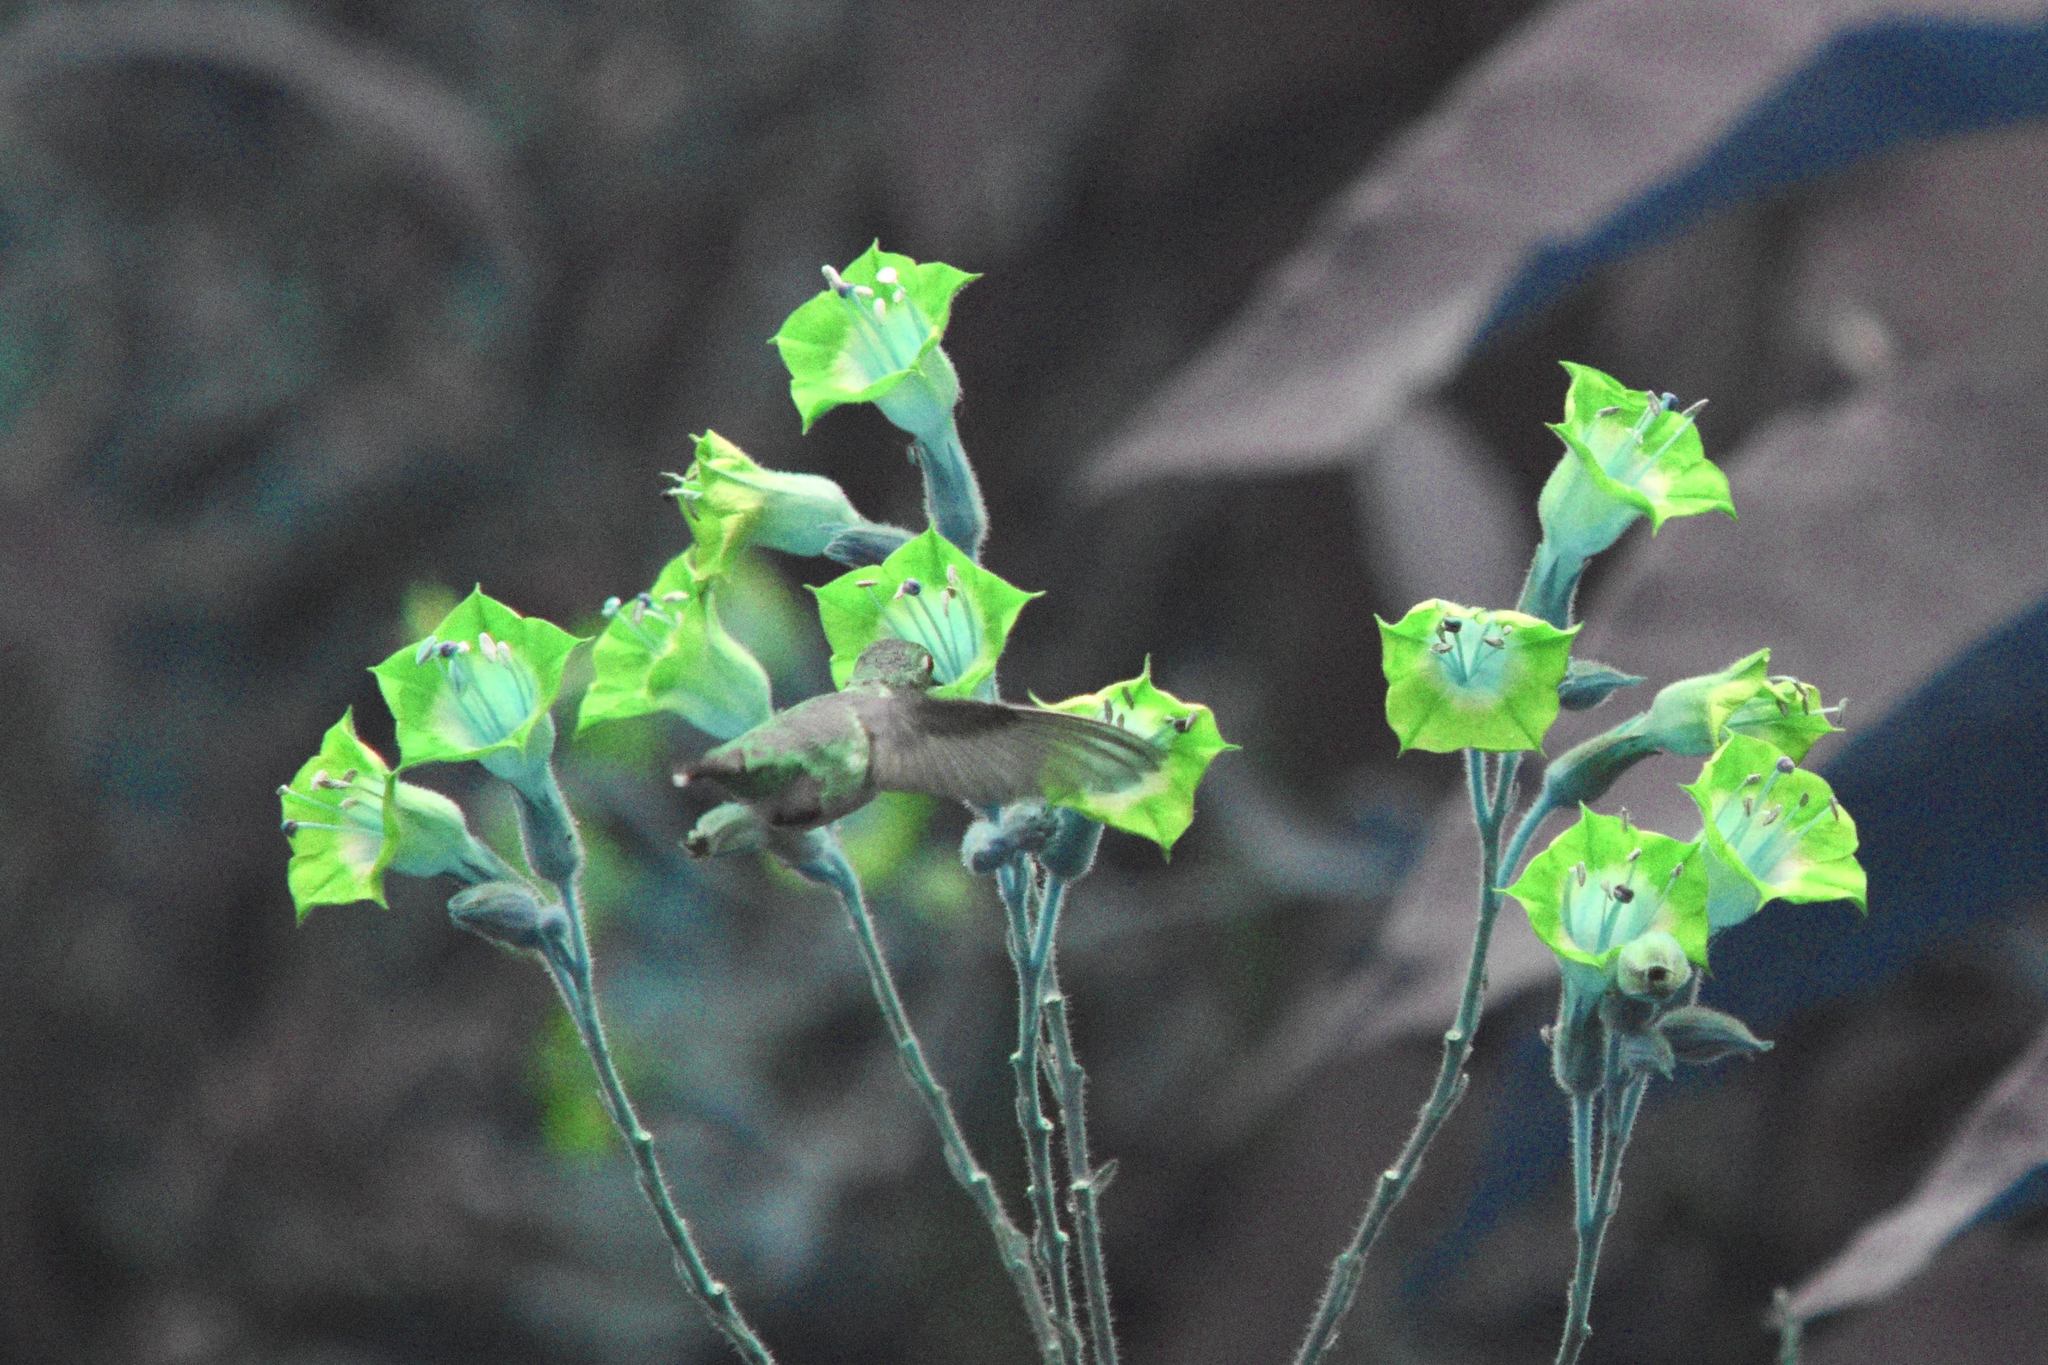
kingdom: Animalia
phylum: Chordata
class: Aves
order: Apodiformes
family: Trochilidae
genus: Selasphorus
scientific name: Selasphorus
